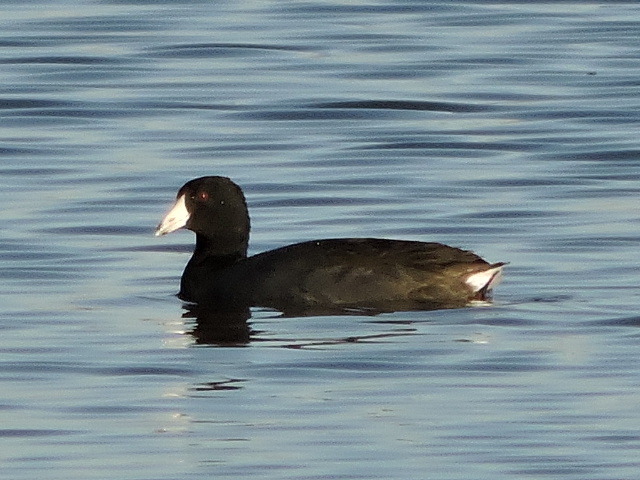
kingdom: Animalia
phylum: Chordata
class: Aves
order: Gruiformes
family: Rallidae
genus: Fulica
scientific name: Fulica americana
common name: American coot
